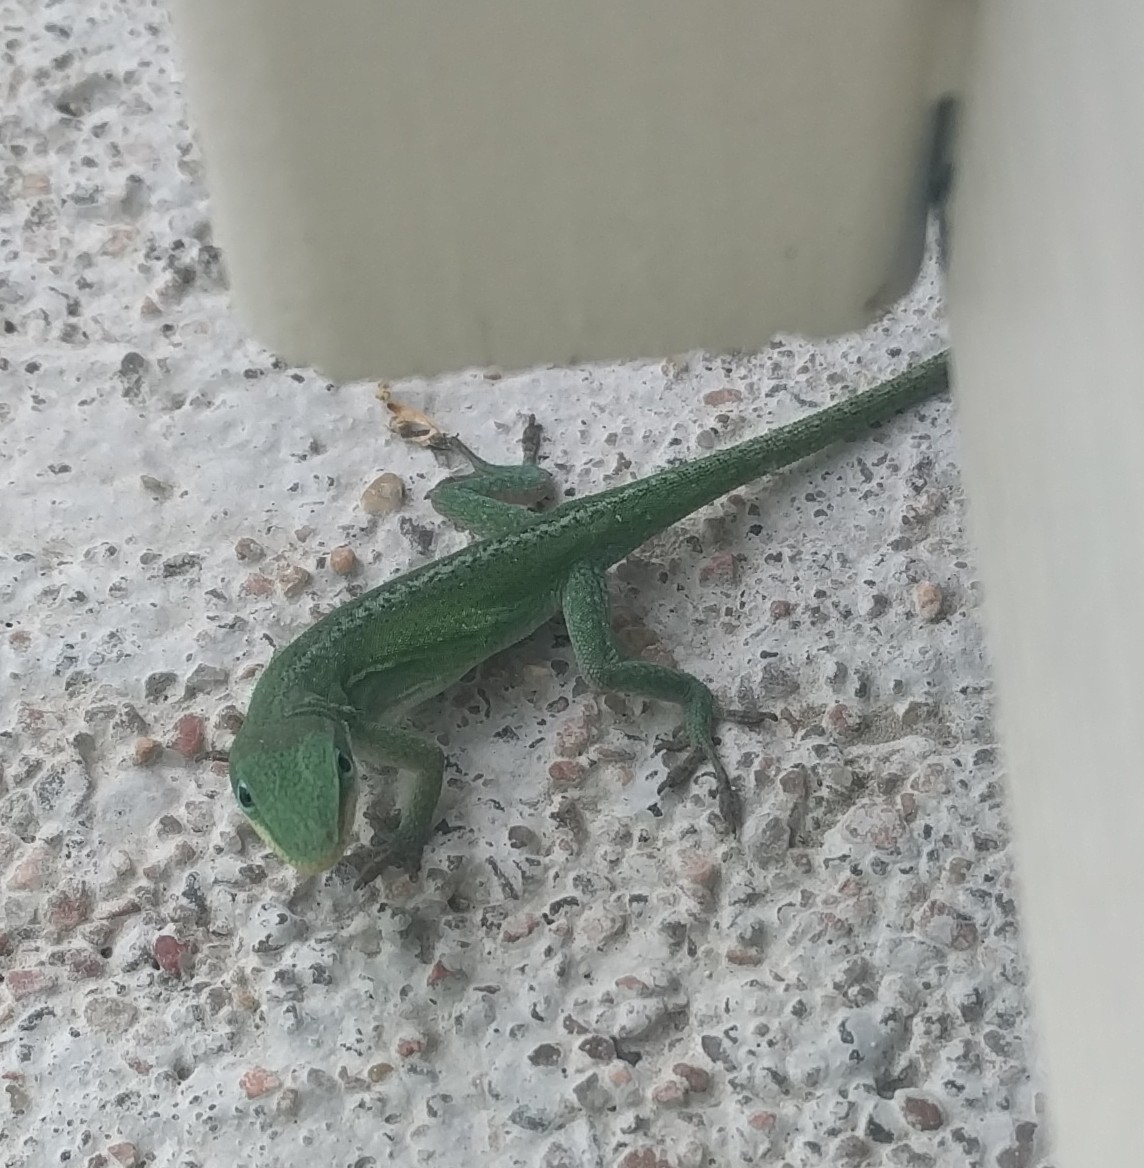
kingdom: Animalia
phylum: Chordata
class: Squamata
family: Dactyloidae
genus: Anolis
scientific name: Anolis carolinensis
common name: Green anole
